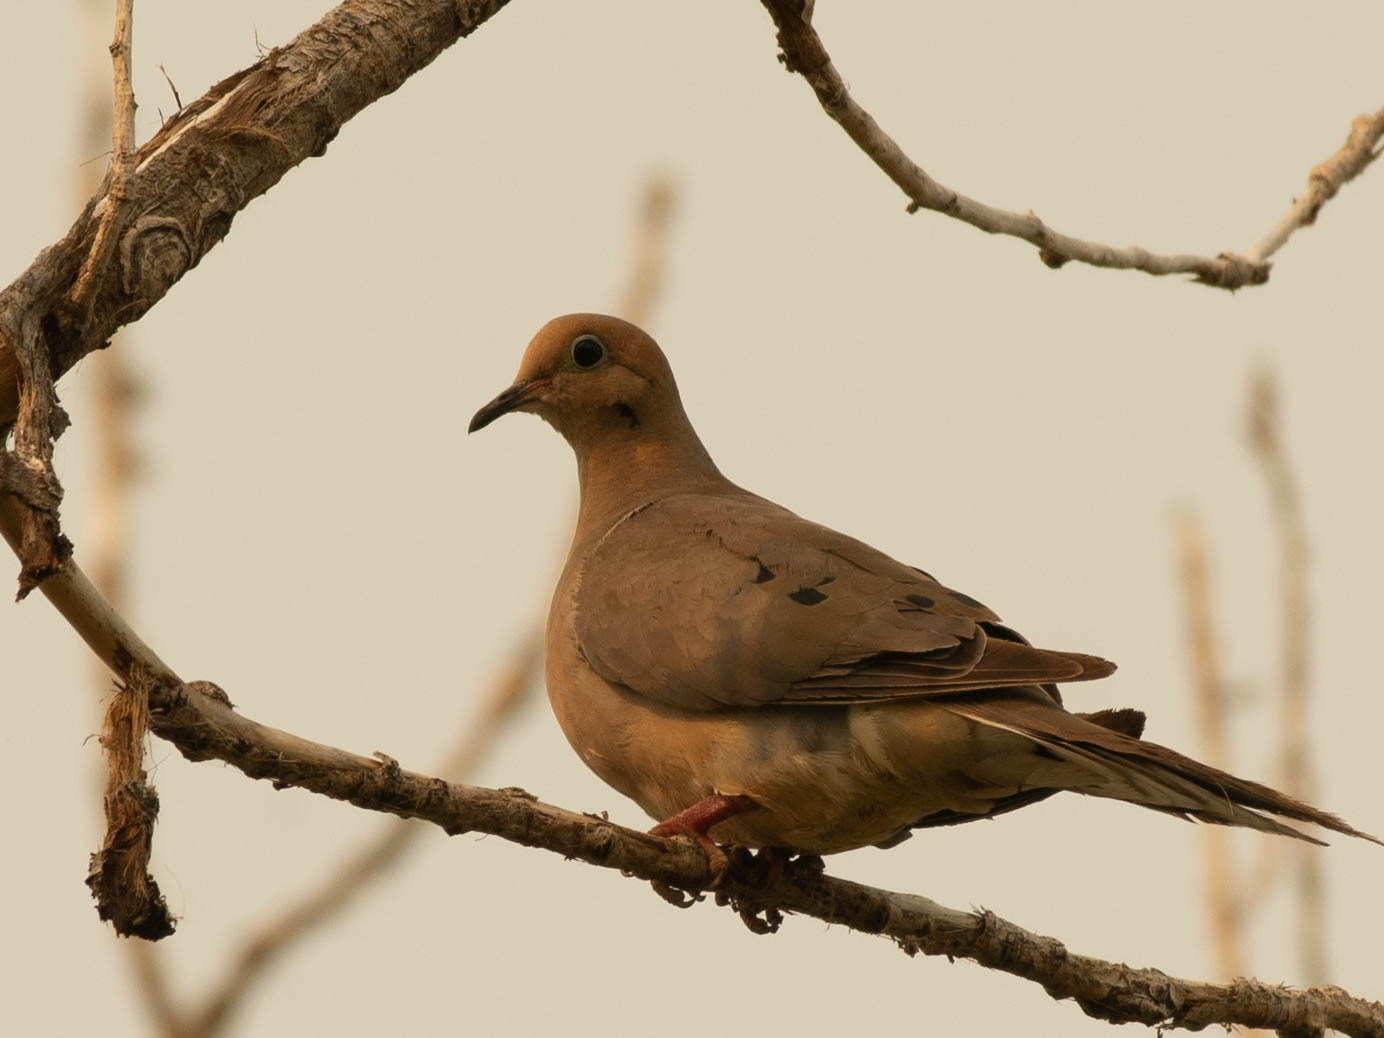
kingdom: Animalia
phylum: Chordata
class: Aves
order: Columbiformes
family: Columbidae
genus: Zenaida
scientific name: Zenaida macroura
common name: Mourning dove
